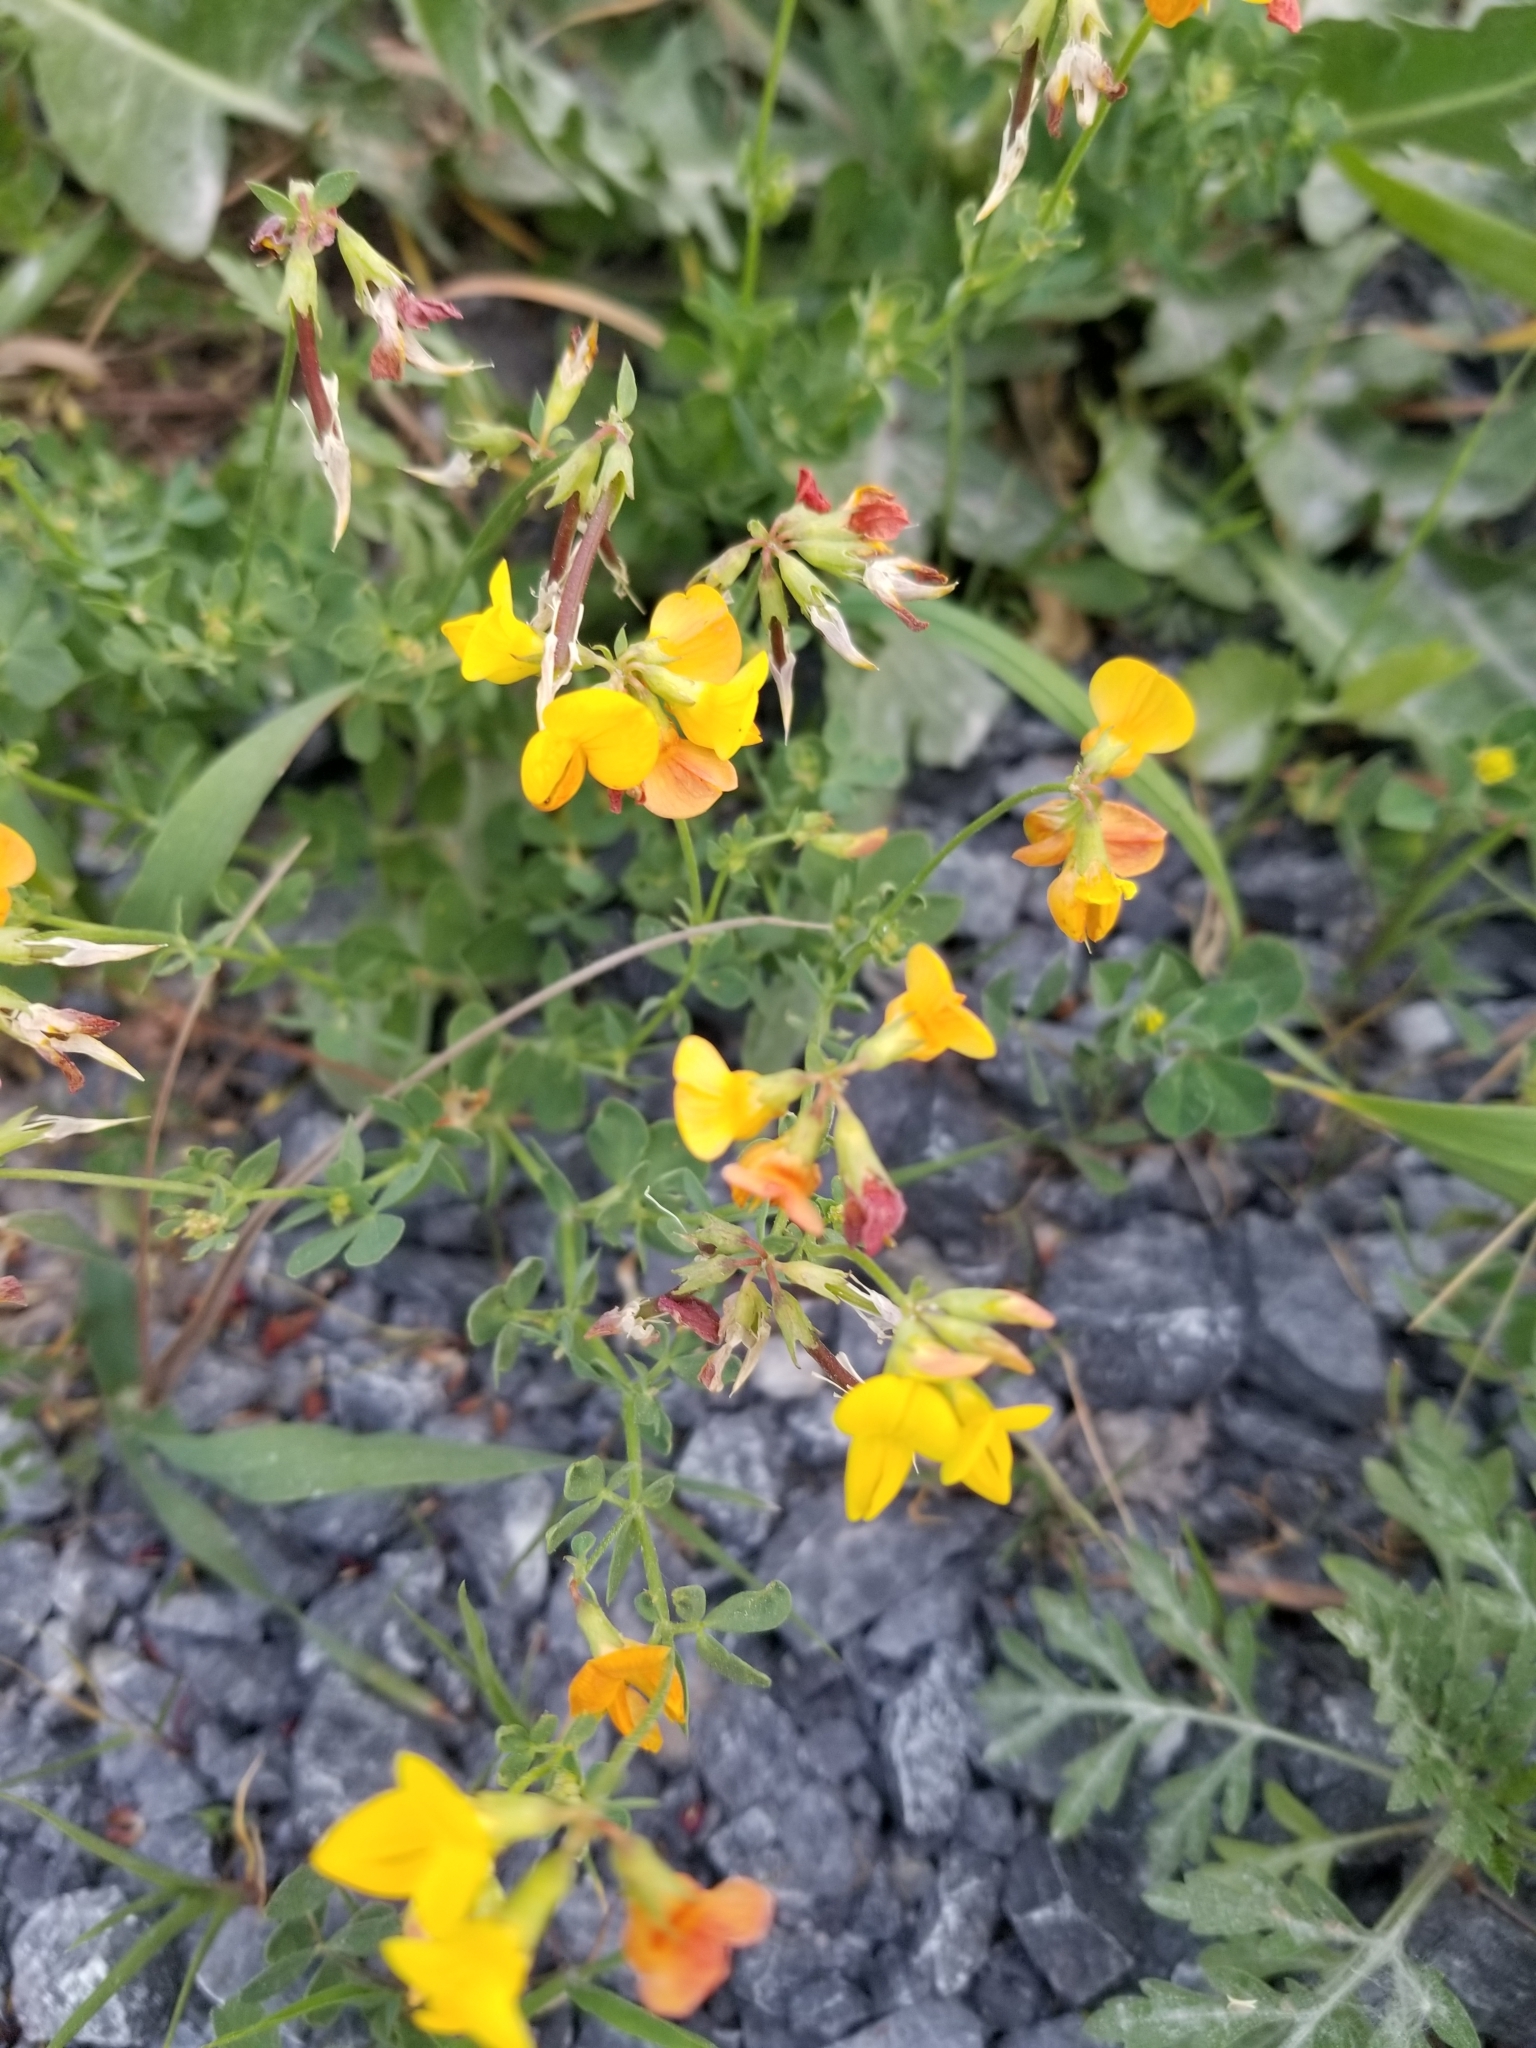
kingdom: Plantae
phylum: Tracheophyta
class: Magnoliopsida
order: Fabales
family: Fabaceae
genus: Lotus
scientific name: Lotus corniculatus
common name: Common bird's-foot-trefoil
